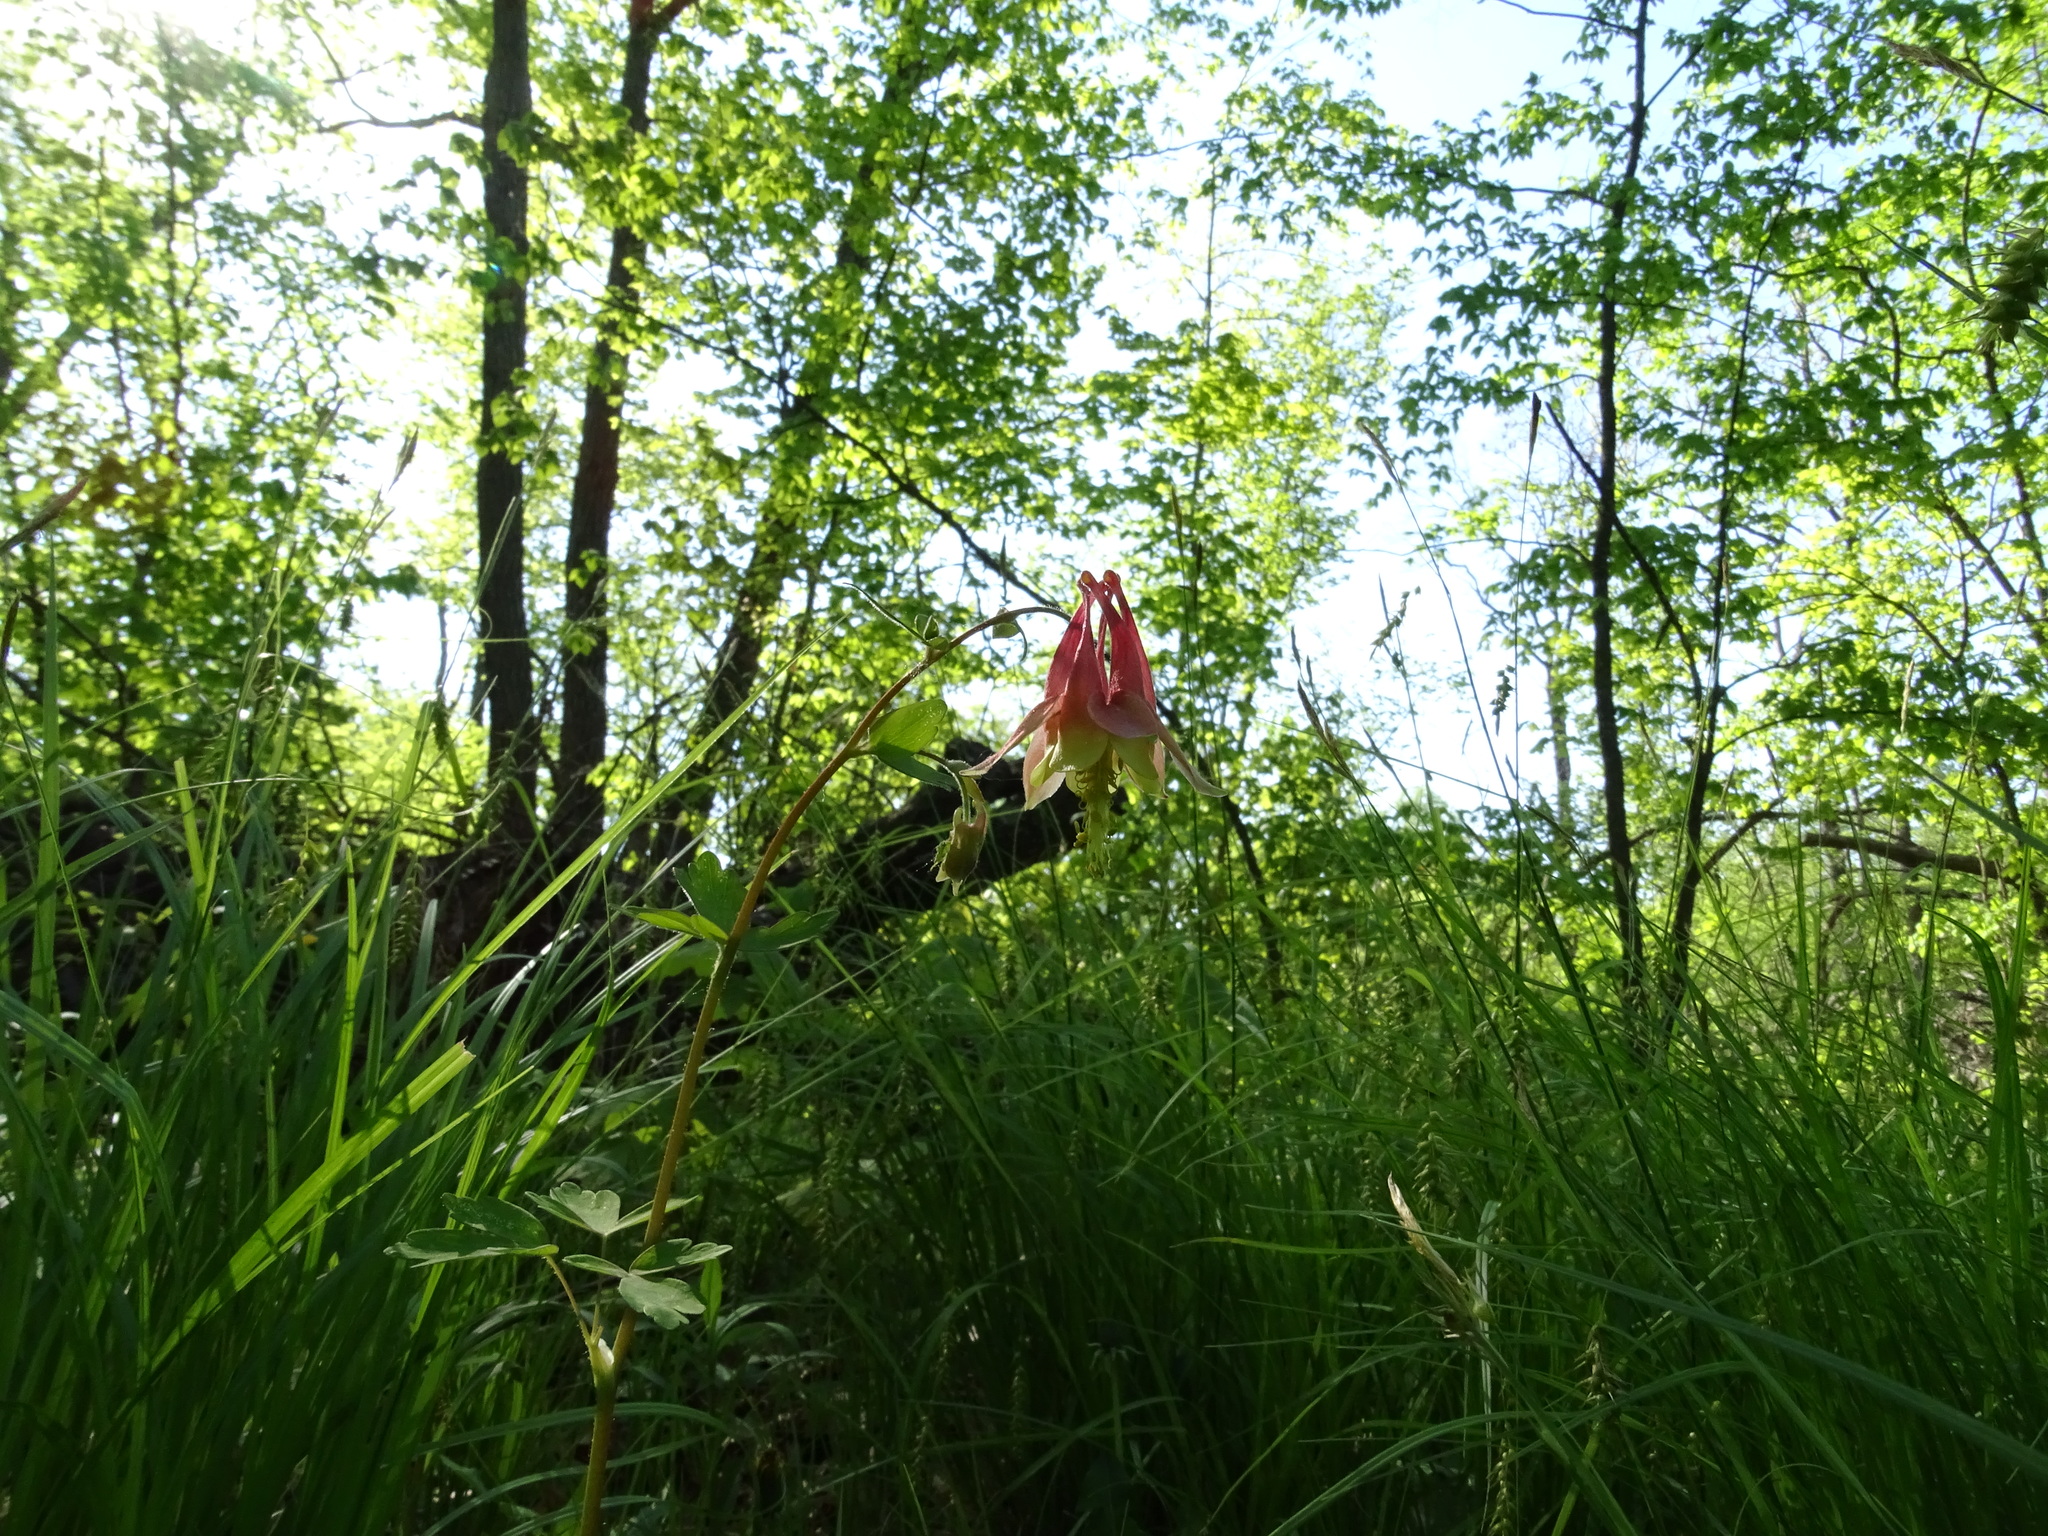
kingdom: Plantae
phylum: Tracheophyta
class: Magnoliopsida
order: Ranunculales
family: Ranunculaceae
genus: Aquilegia
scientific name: Aquilegia canadensis
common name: American columbine
